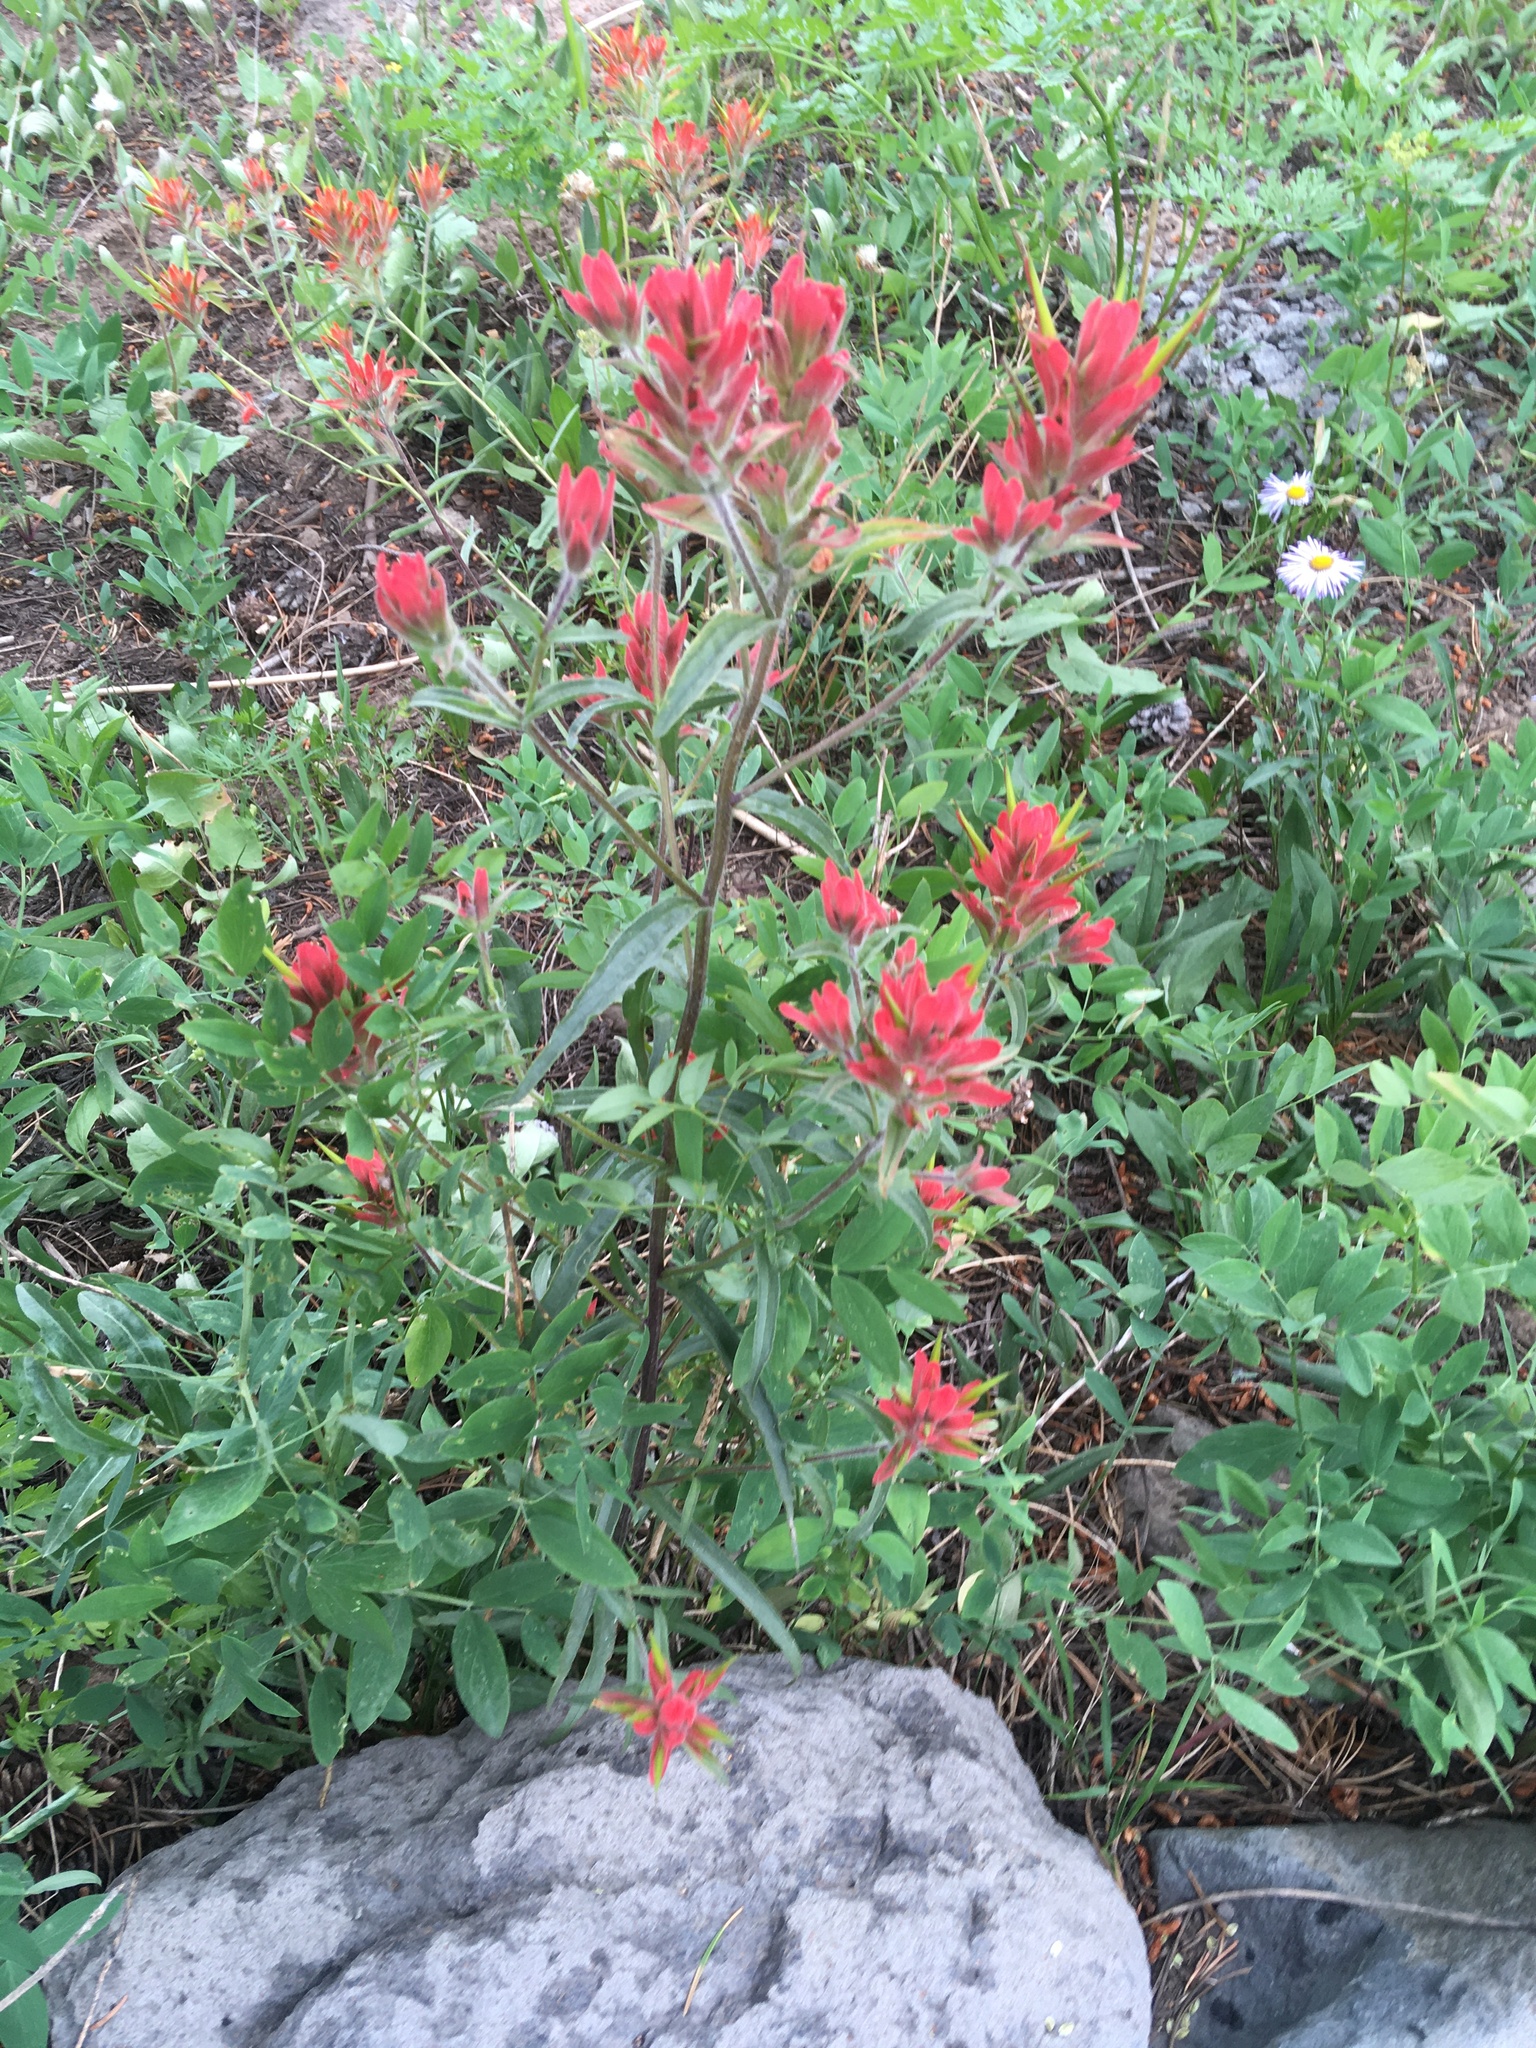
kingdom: Plantae
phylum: Tracheophyta
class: Magnoliopsida
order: Lamiales
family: Orobanchaceae
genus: Castilleja
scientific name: Castilleja miniata
